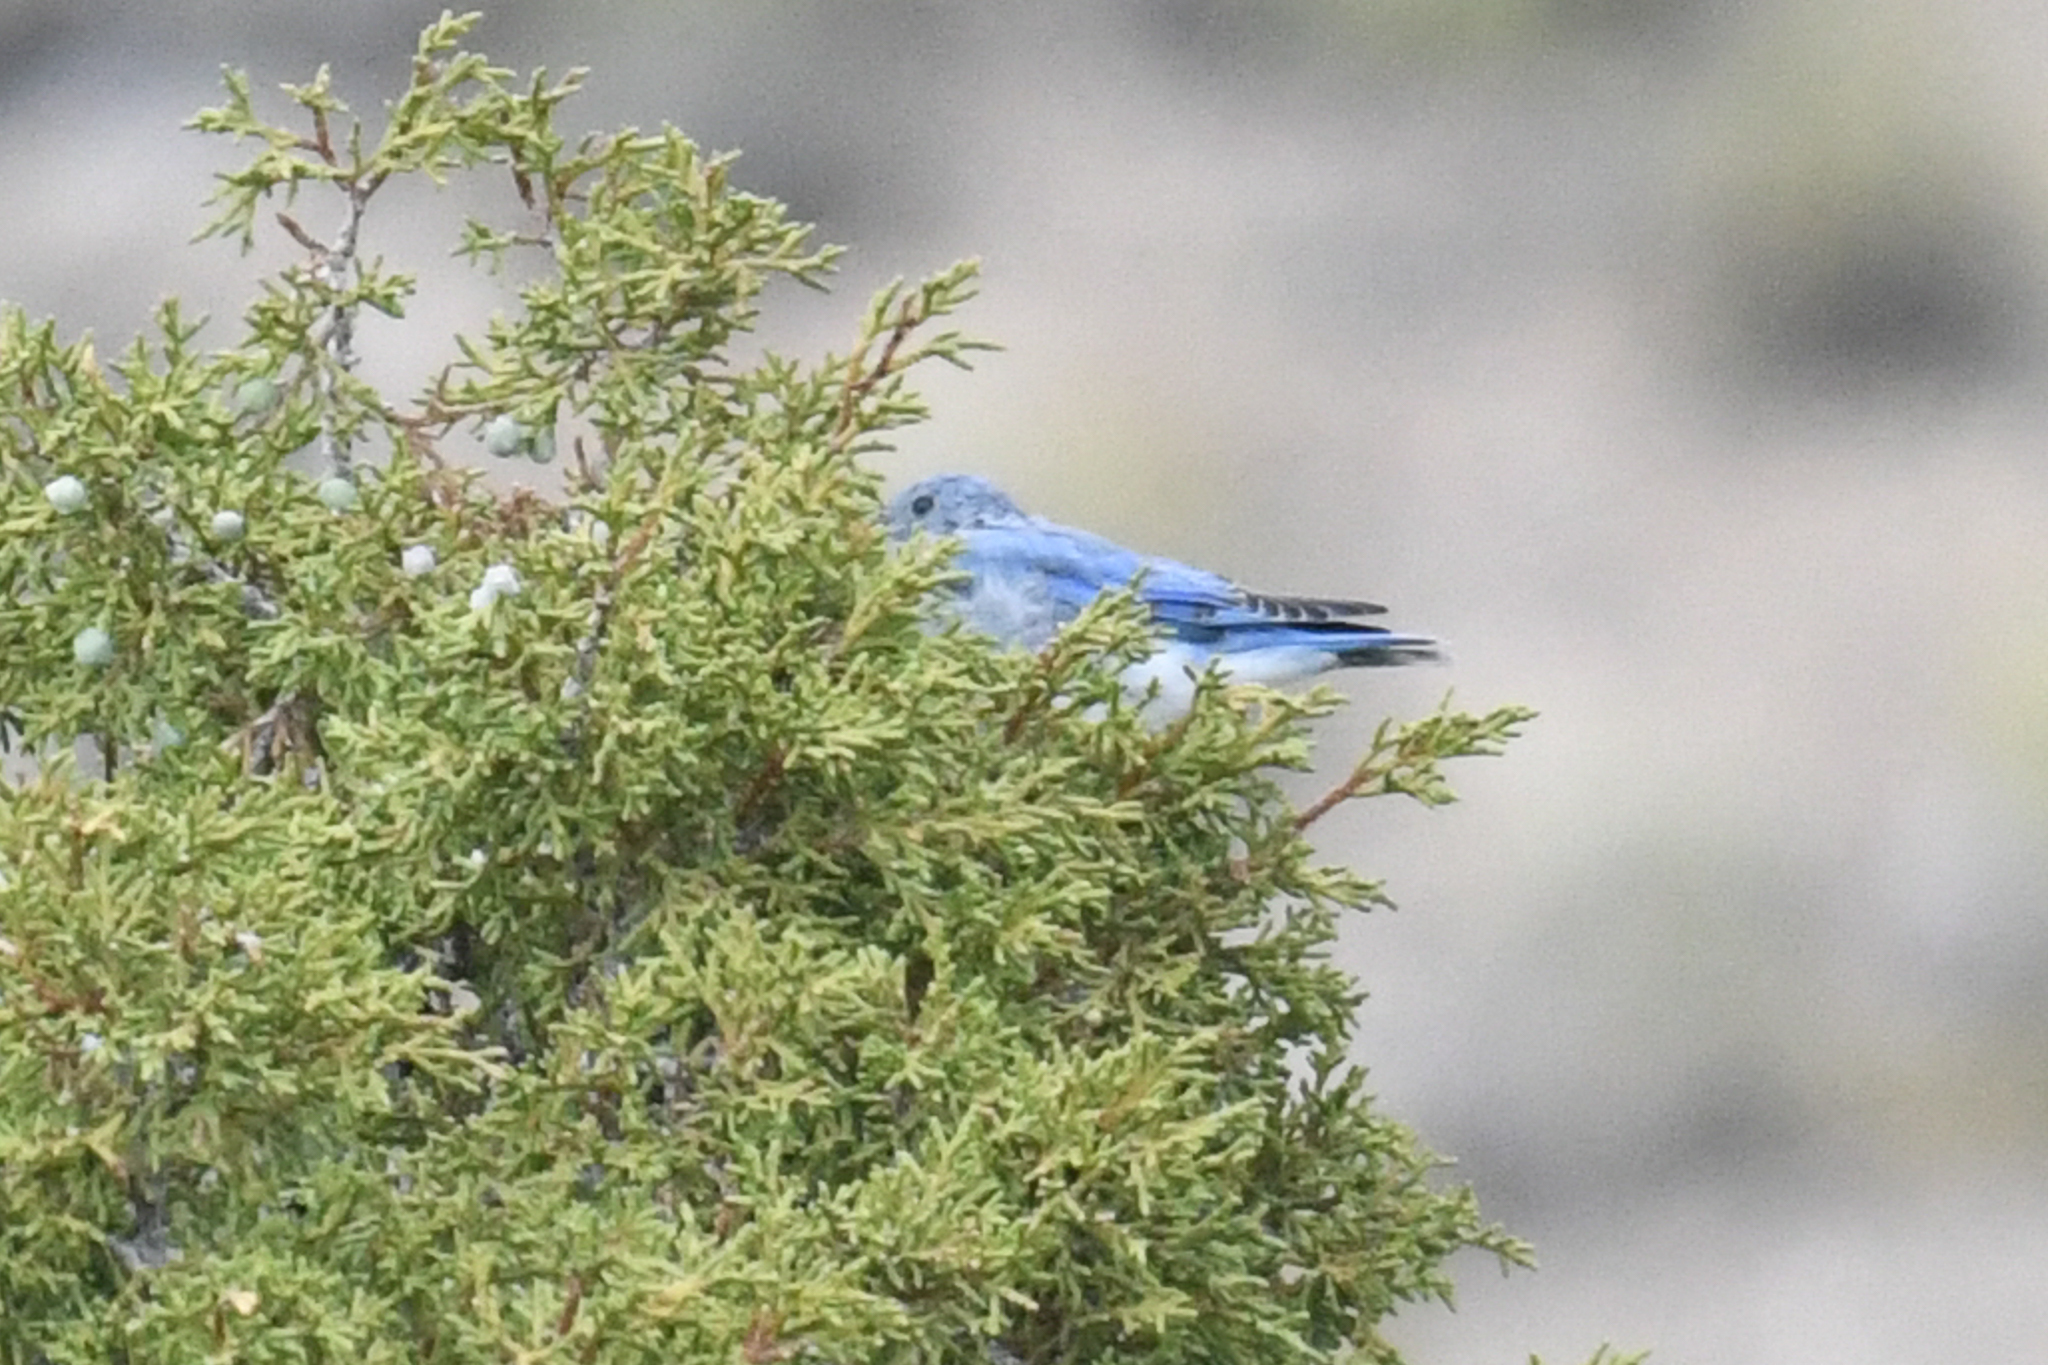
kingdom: Animalia
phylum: Chordata
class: Aves
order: Passeriformes
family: Turdidae
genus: Sialia
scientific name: Sialia currucoides
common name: Mountain bluebird
